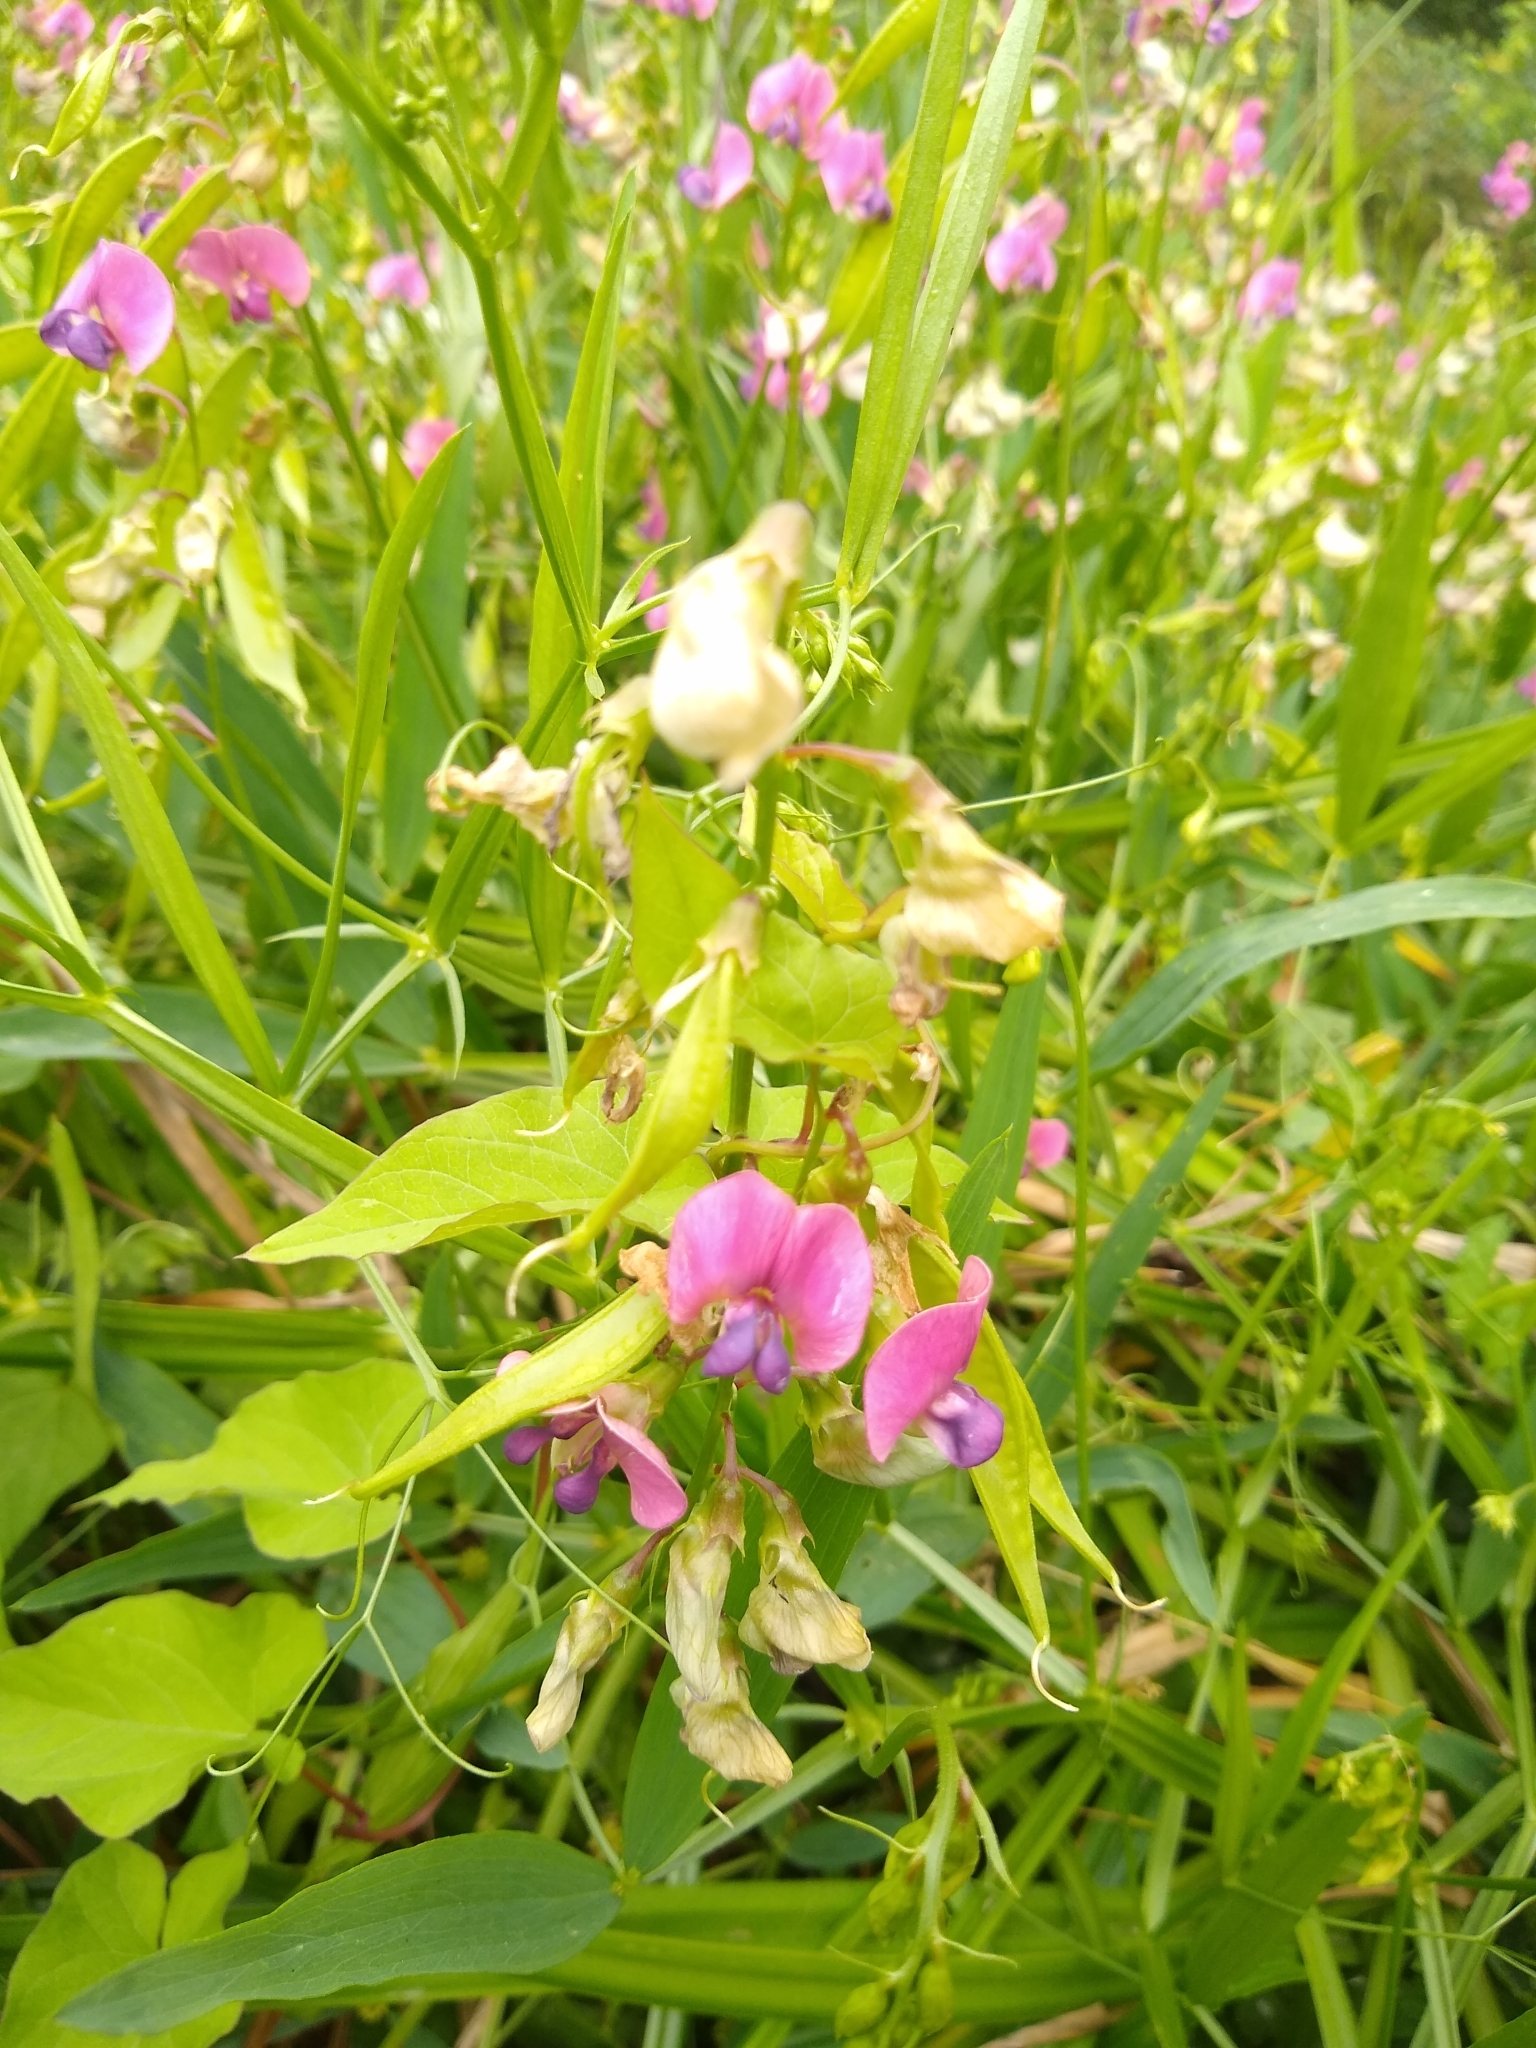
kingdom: Plantae
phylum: Tracheophyta
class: Magnoliopsida
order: Fabales
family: Fabaceae
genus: Lathyrus
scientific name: Lathyrus sylvestris
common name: Flat pea
